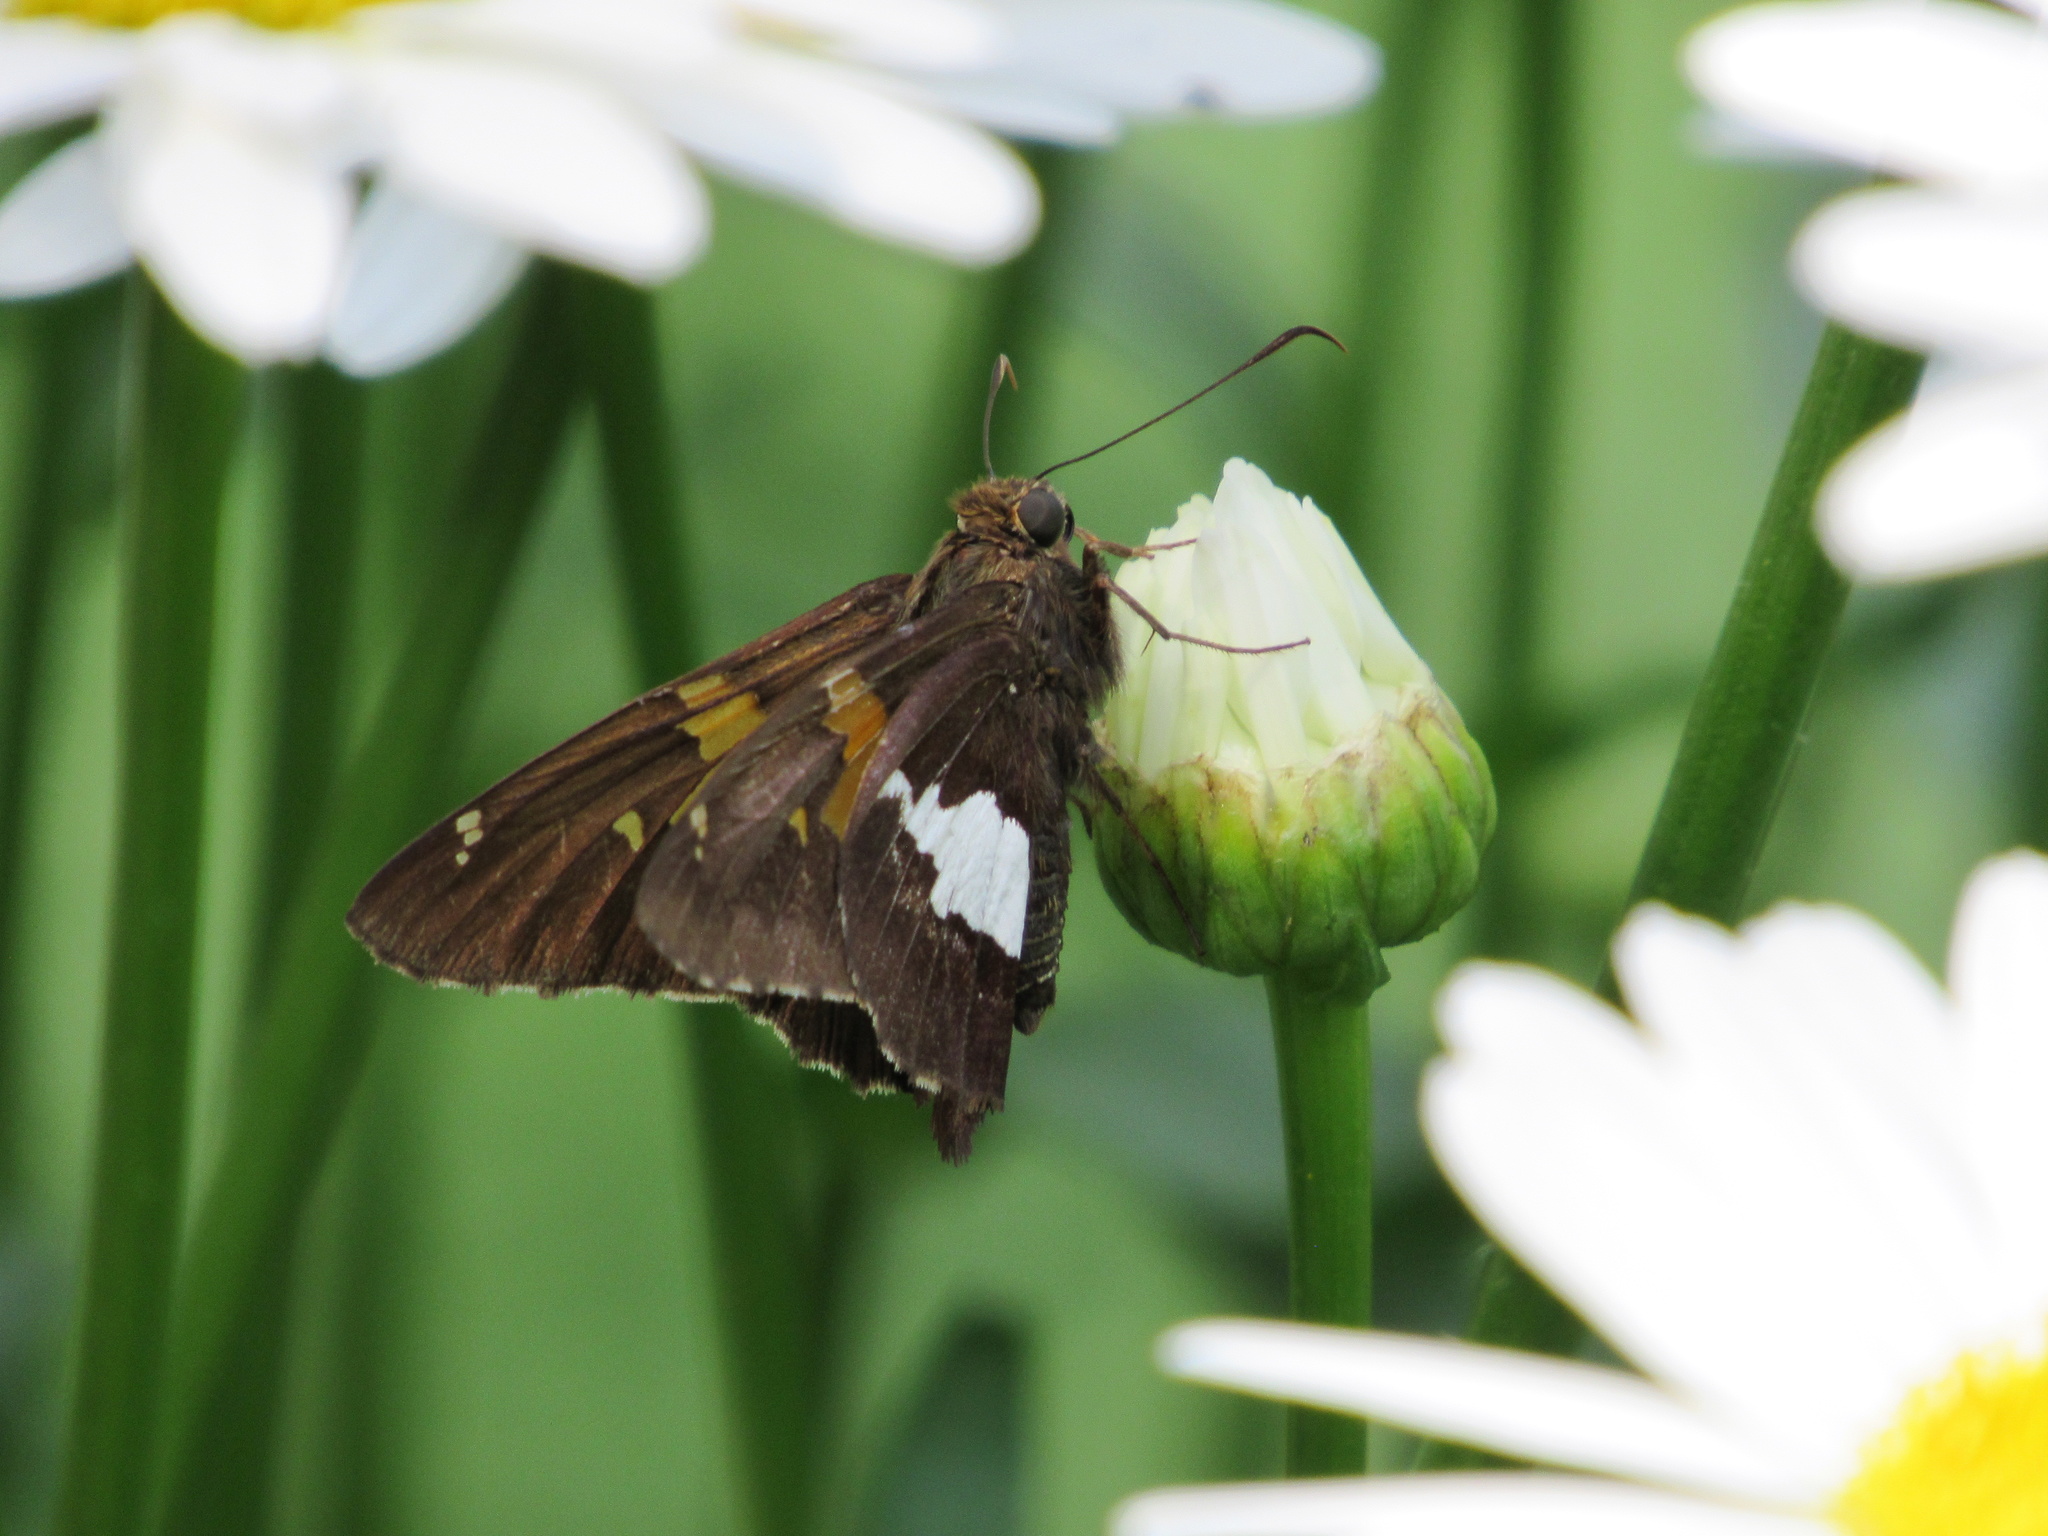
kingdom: Animalia
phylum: Arthropoda
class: Insecta
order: Lepidoptera
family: Hesperiidae
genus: Epargyreus
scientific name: Epargyreus clarus
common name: Silver-spotted skipper
